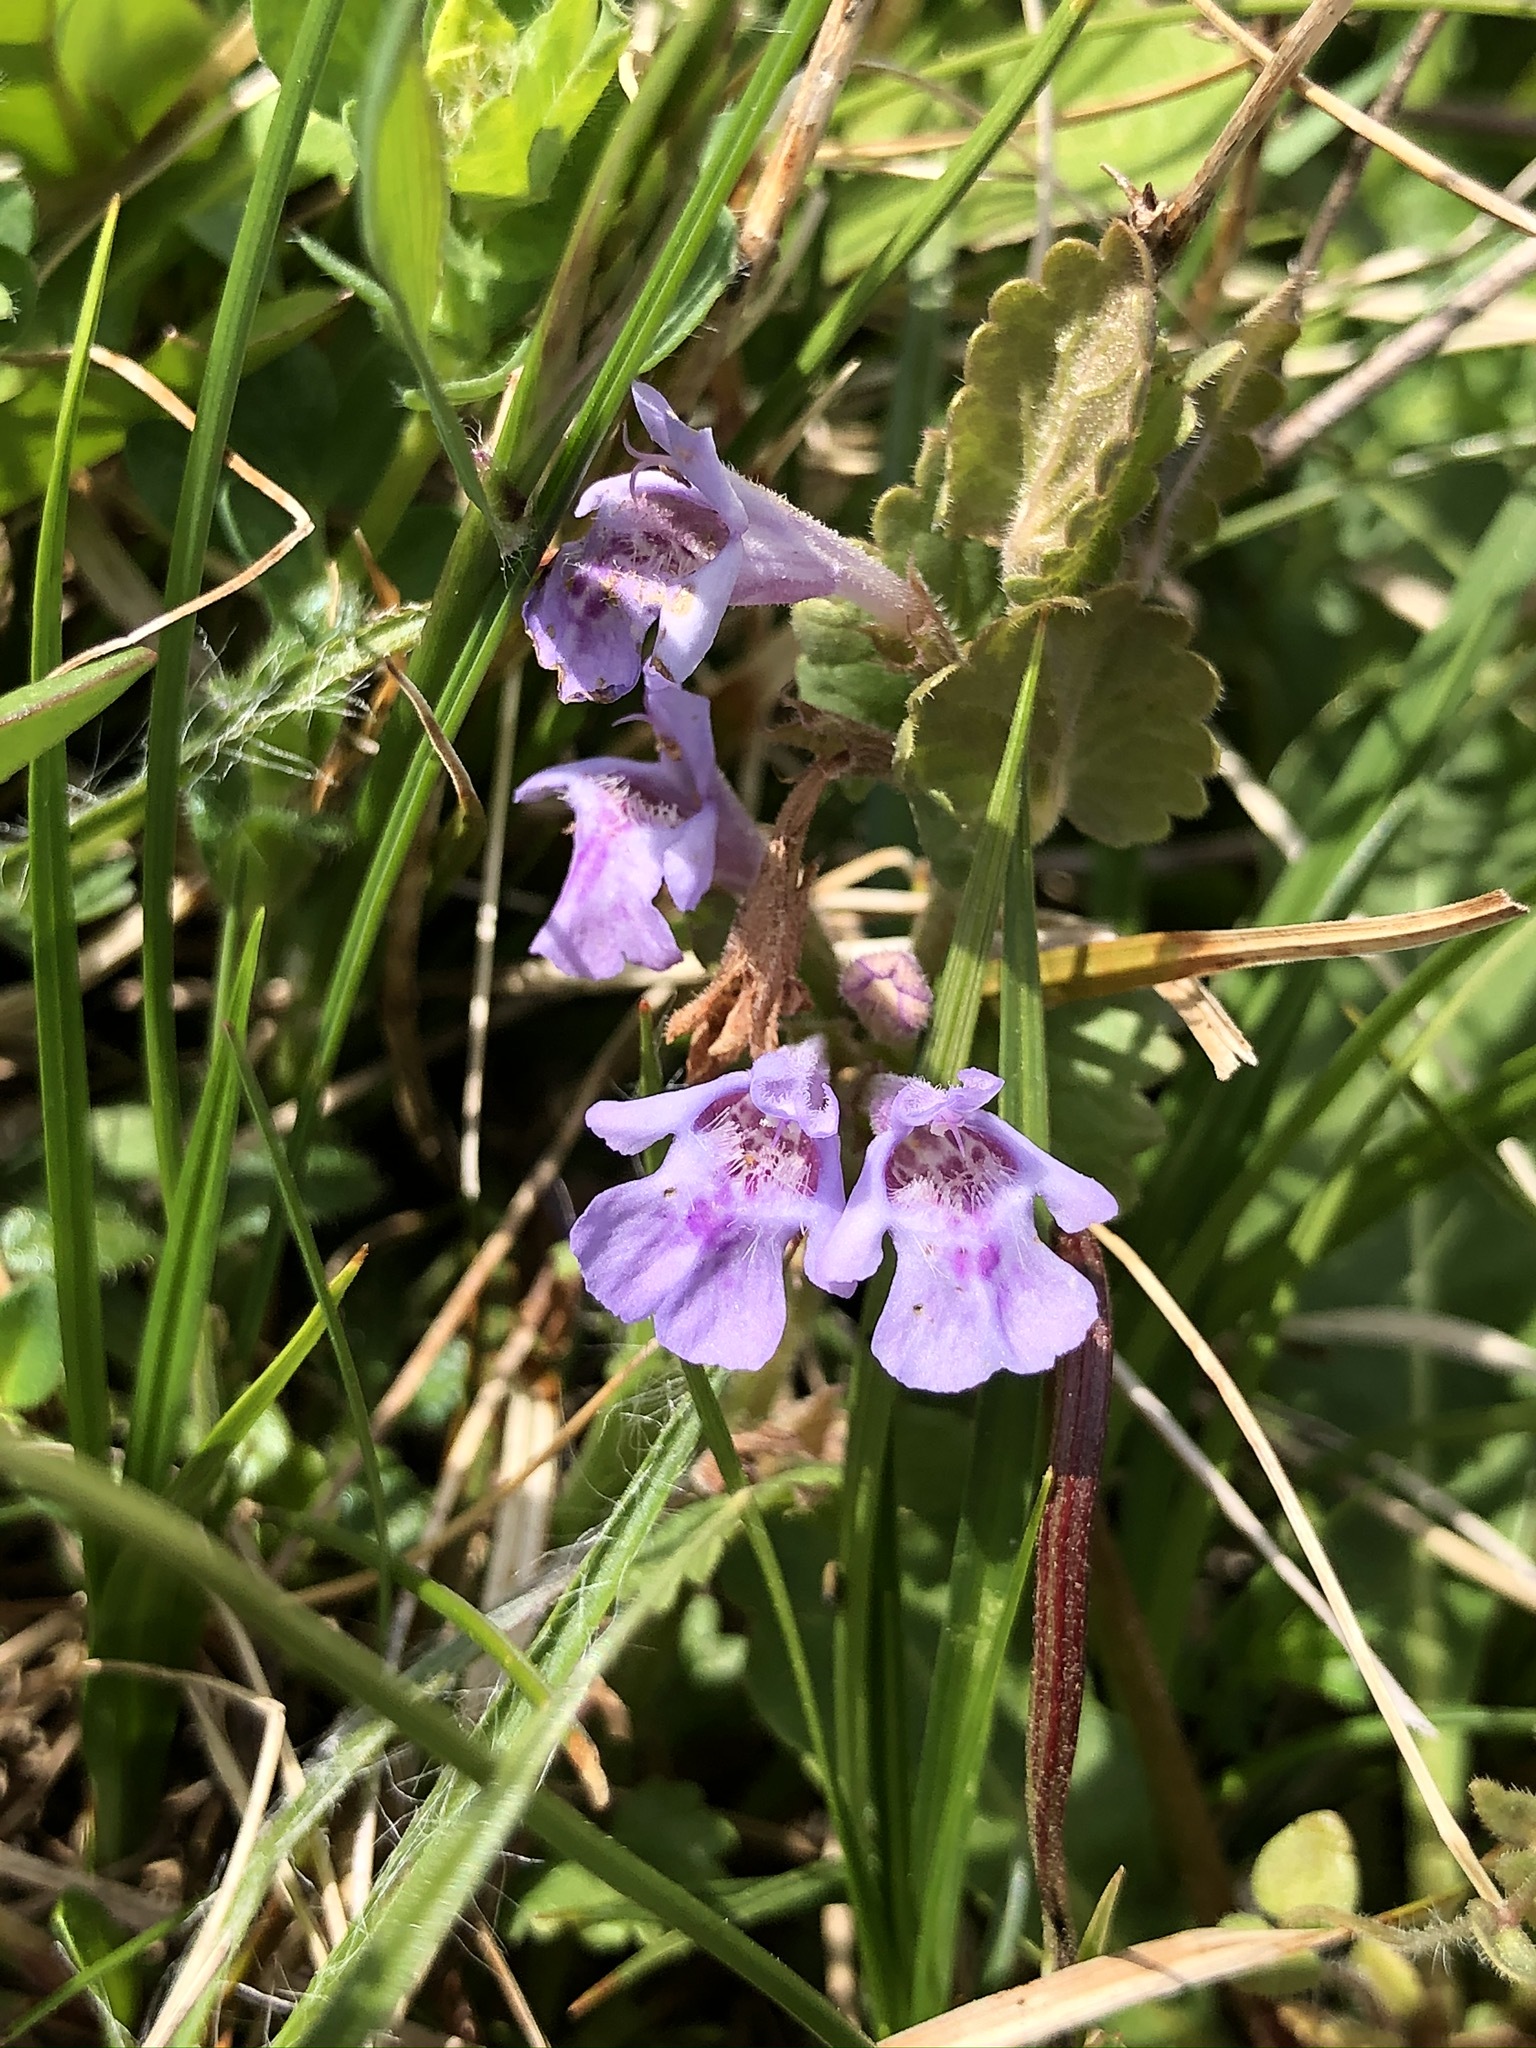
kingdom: Plantae
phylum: Tracheophyta
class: Magnoliopsida
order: Lamiales
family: Lamiaceae
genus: Glechoma
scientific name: Glechoma hederacea
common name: Ground ivy
